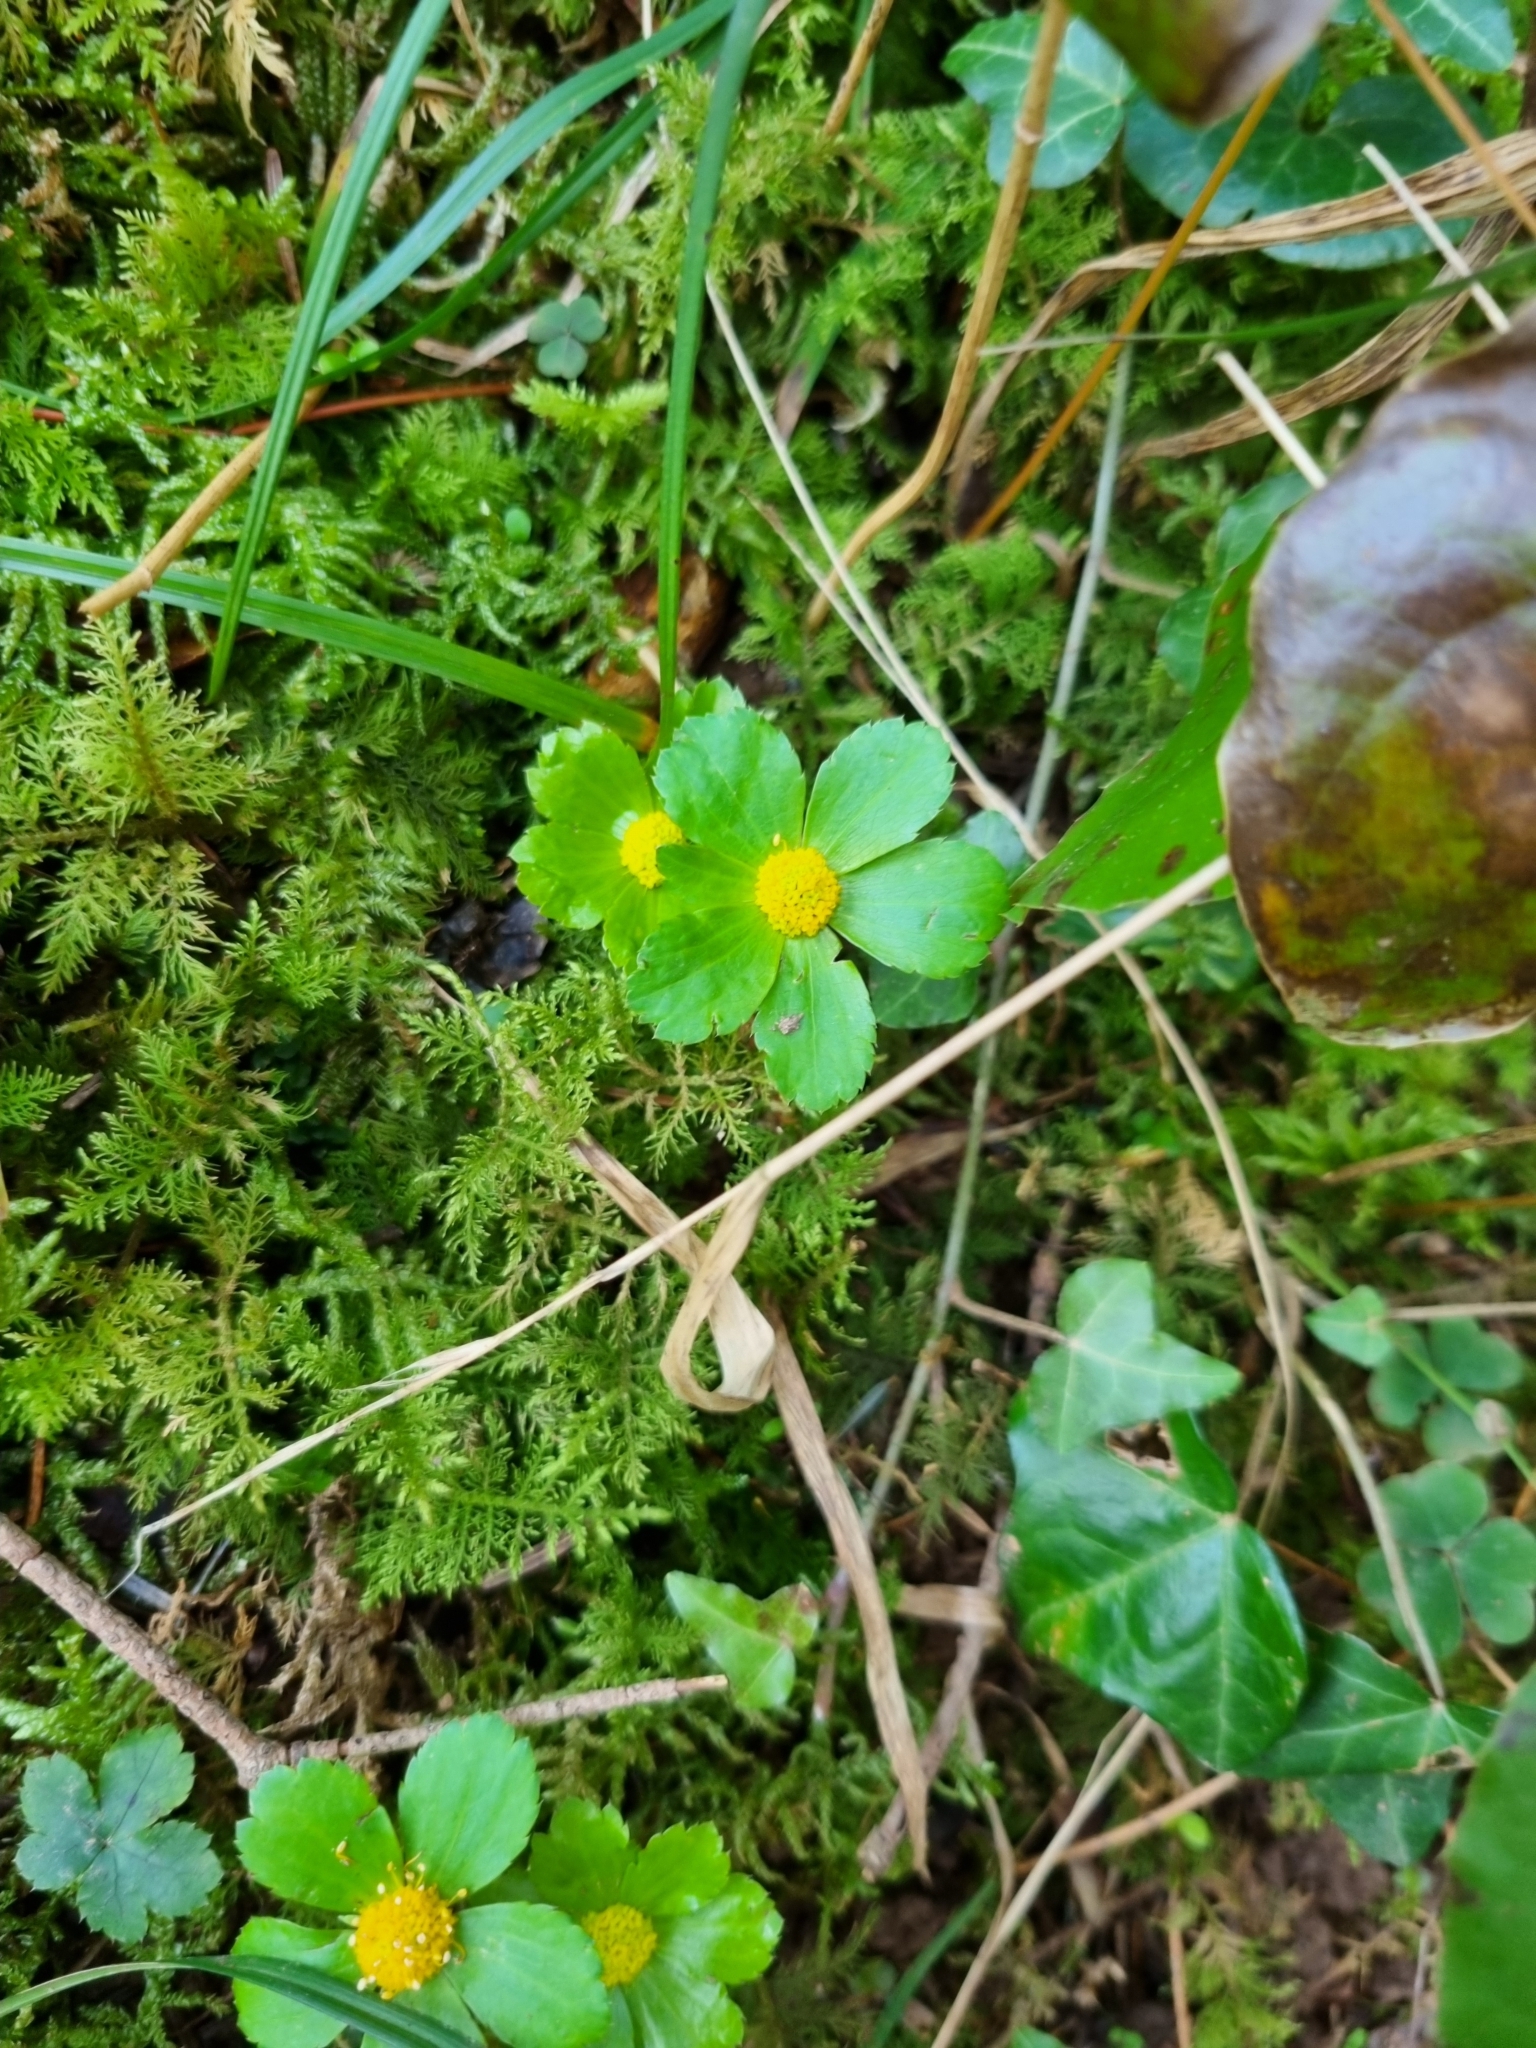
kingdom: Plantae
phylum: Tracheophyta
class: Magnoliopsida
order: Apiales
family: Apiaceae
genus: Sanicula
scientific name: Sanicula epipactis
